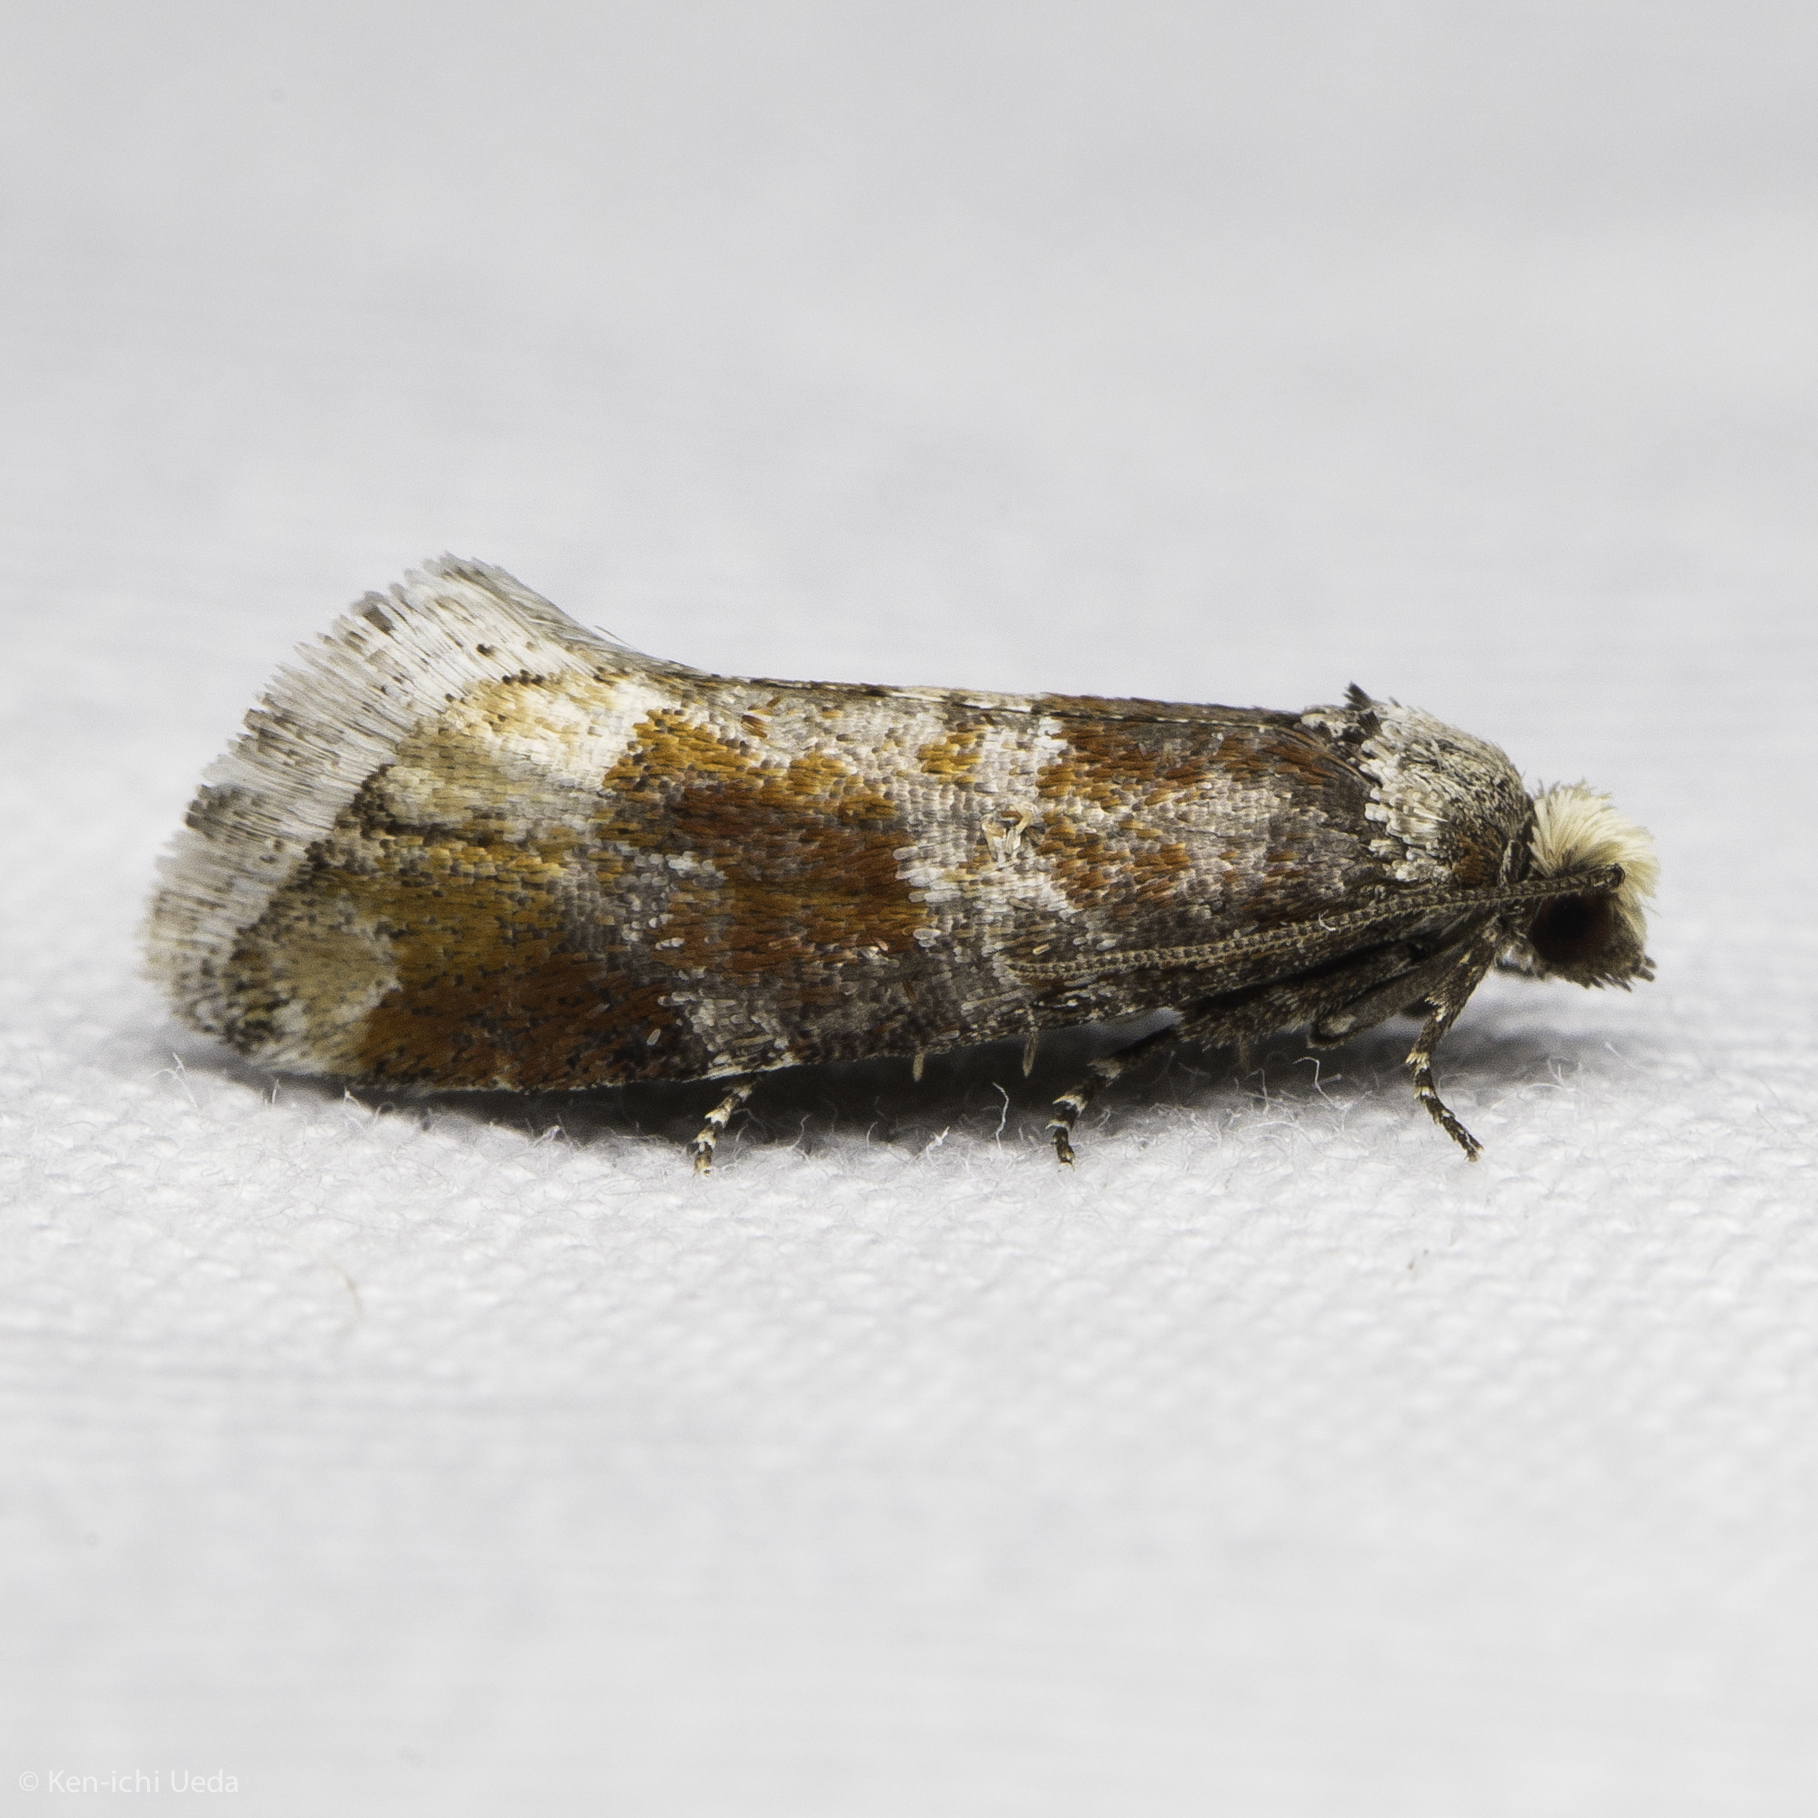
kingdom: Animalia
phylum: Arthropoda
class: Insecta
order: Lepidoptera
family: Tortricidae
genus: Eucopina
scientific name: Eucopina sonomana
